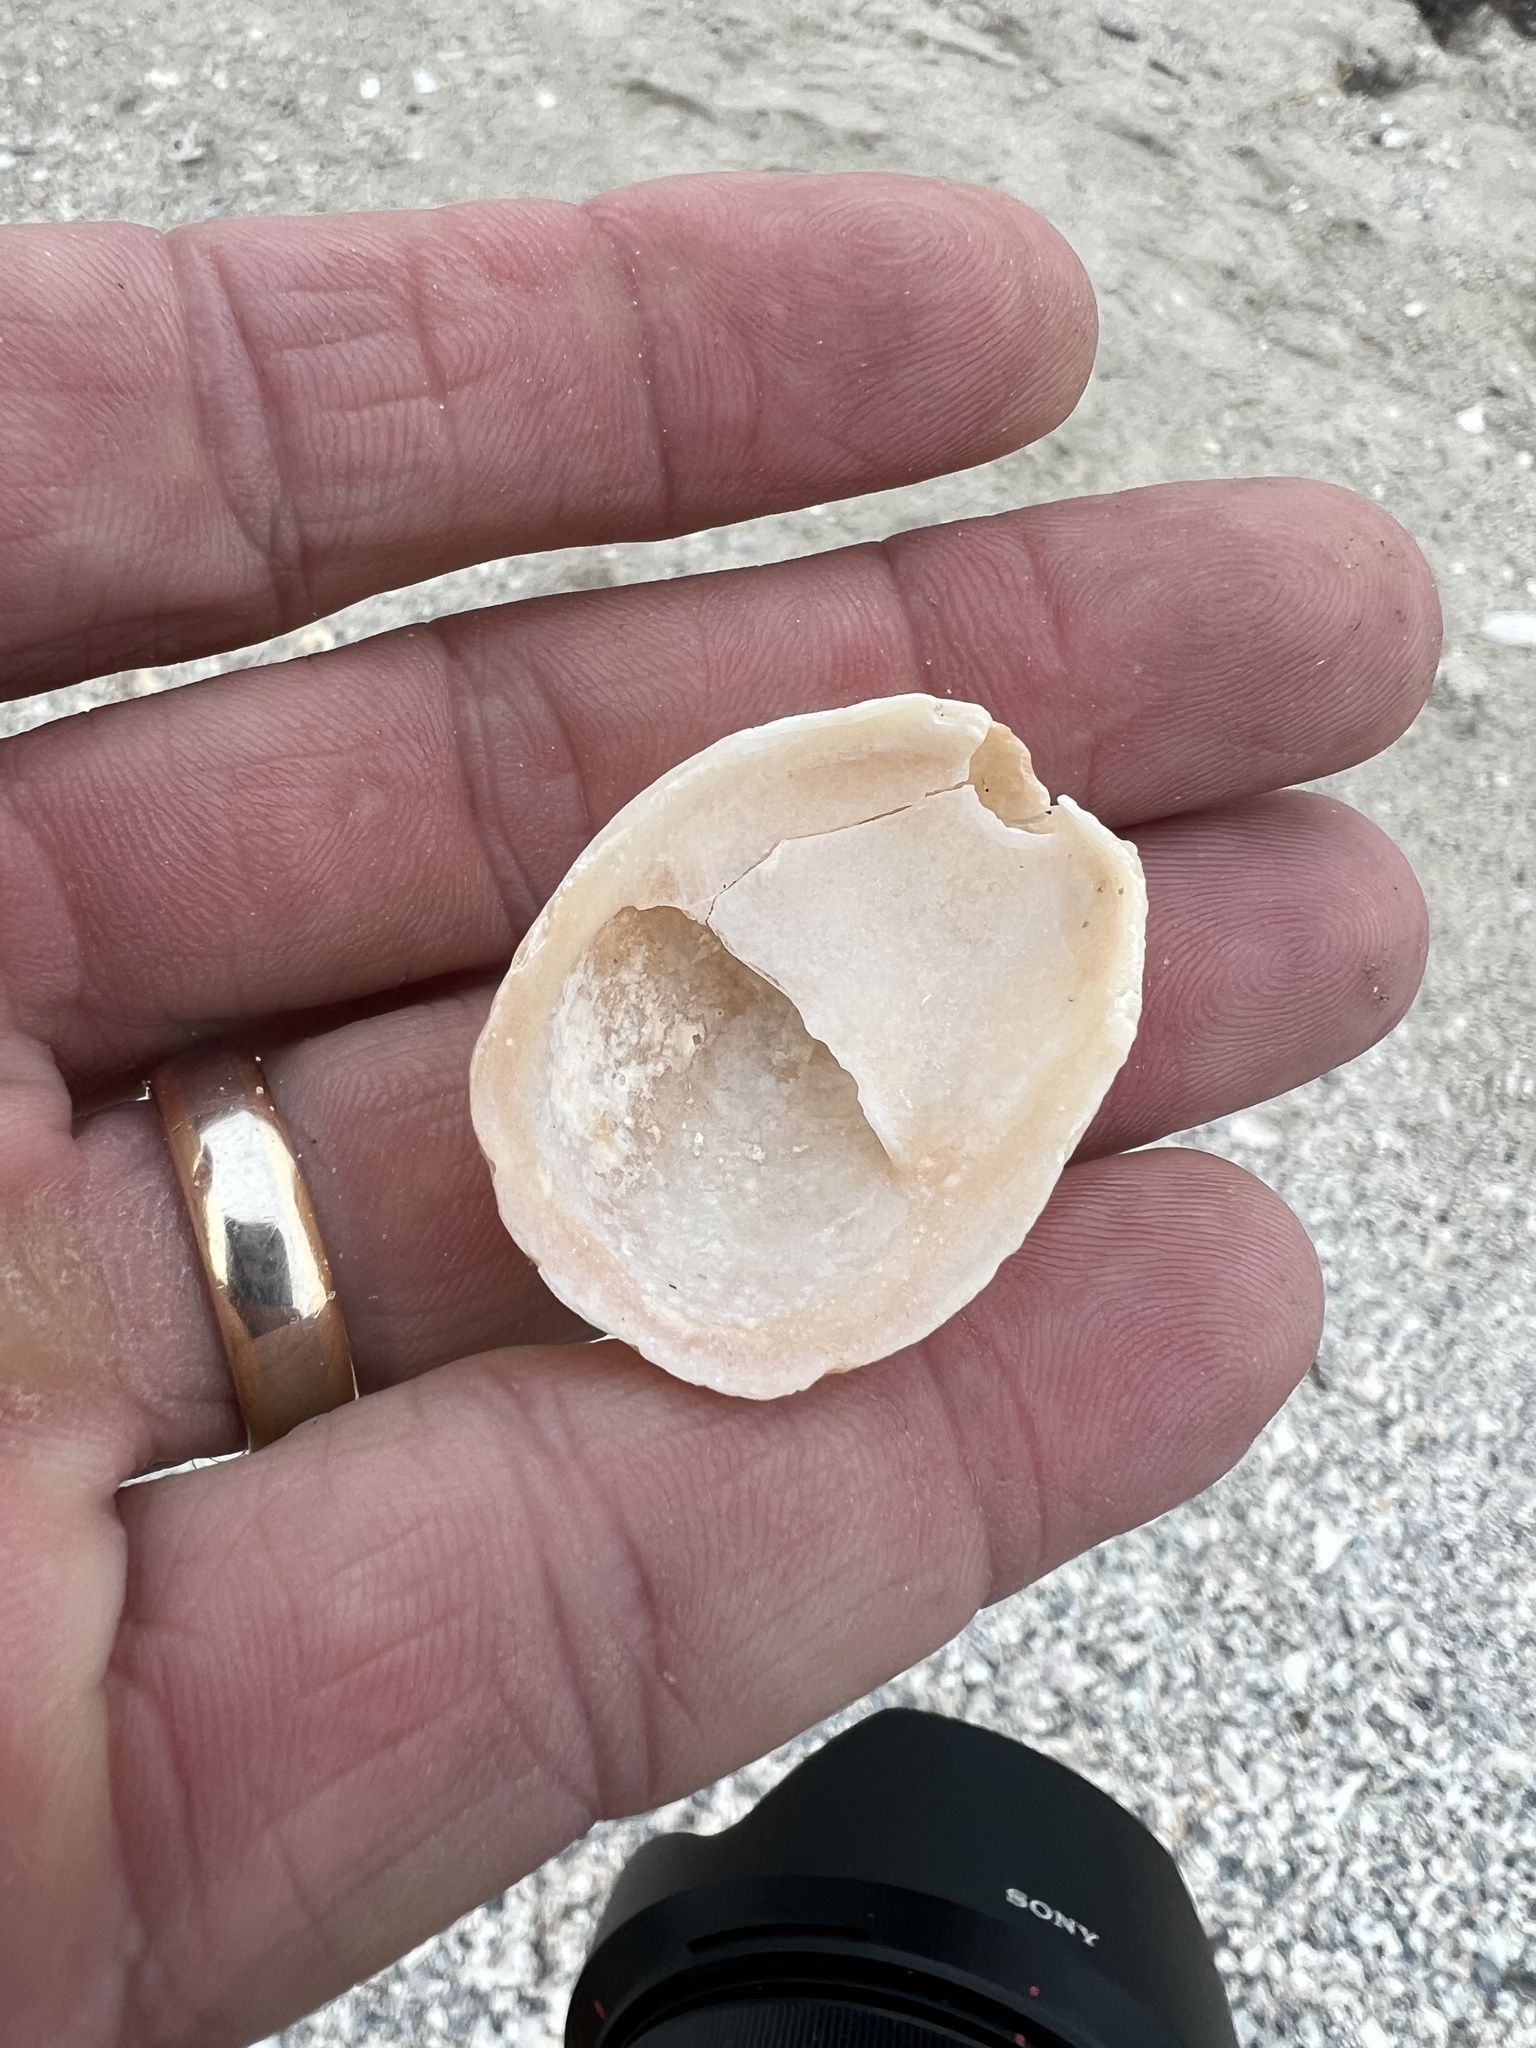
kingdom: Animalia
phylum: Mollusca
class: Gastropoda
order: Littorinimorpha
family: Calyptraeidae
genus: Crepidula
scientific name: Crepidula fornicata
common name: Slipper limpet
